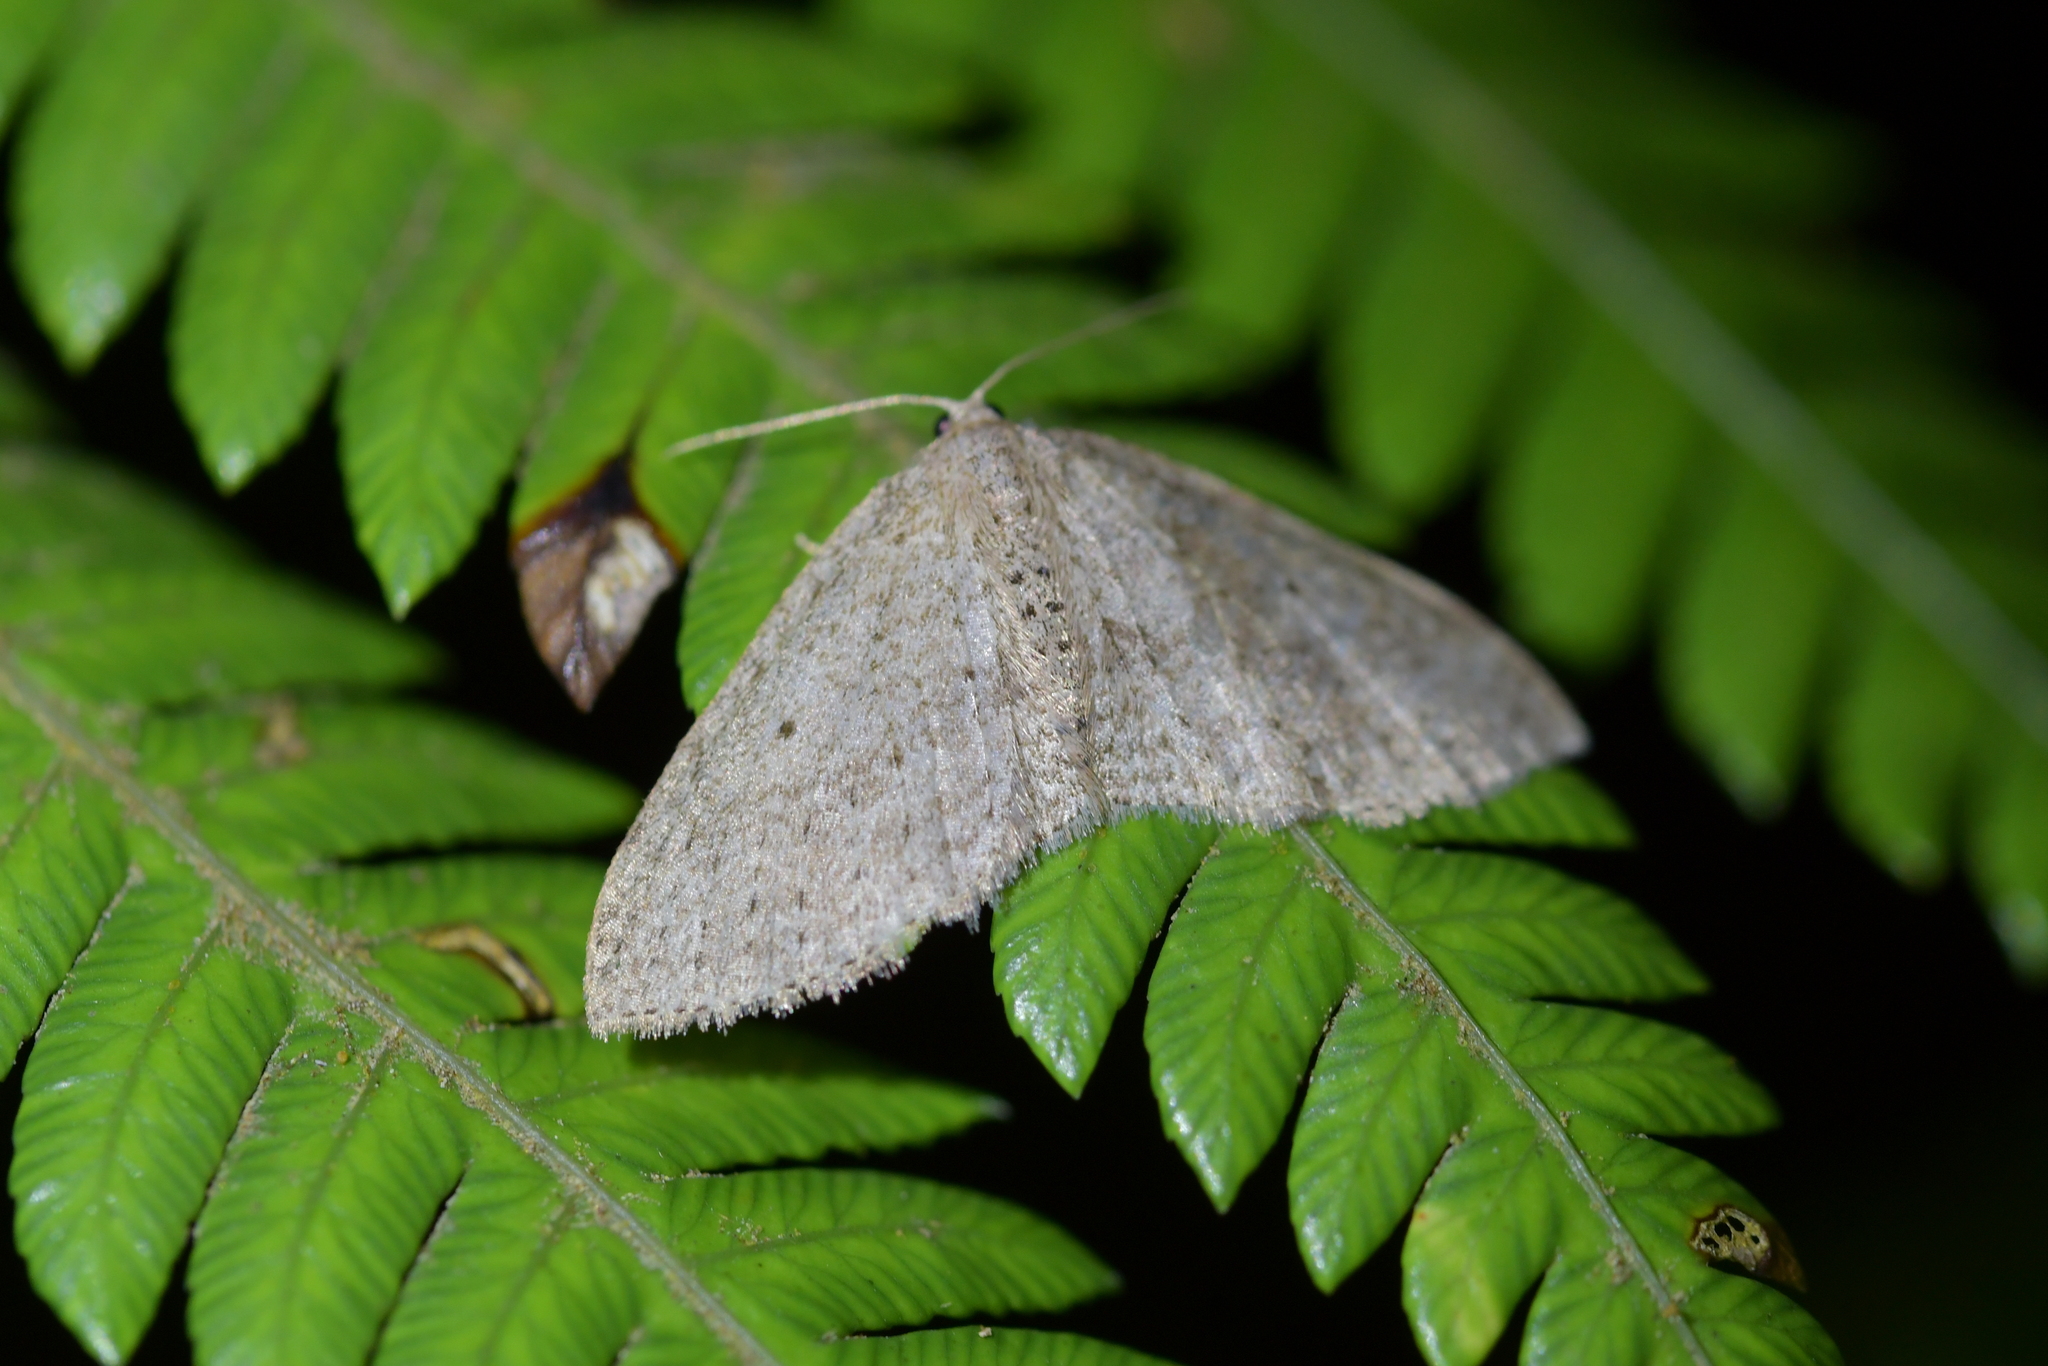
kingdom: Animalia
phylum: Arthropoda
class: Insecta
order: Lepidoptera
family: Geometridae
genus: Poecilasthena
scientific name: Poecilasthena schistaria
